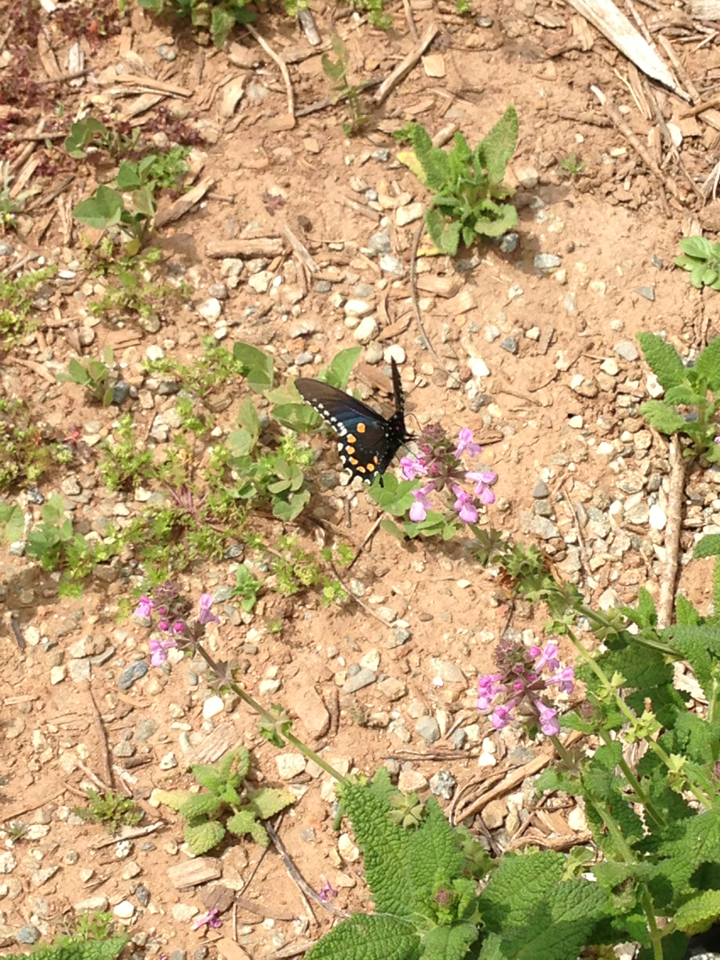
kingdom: Animalia
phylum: Arthropoda
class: Insecta
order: Lepidoptera
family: Papilionidae
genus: Battus
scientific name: Battus philenor
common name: Pipevine swallowtail
